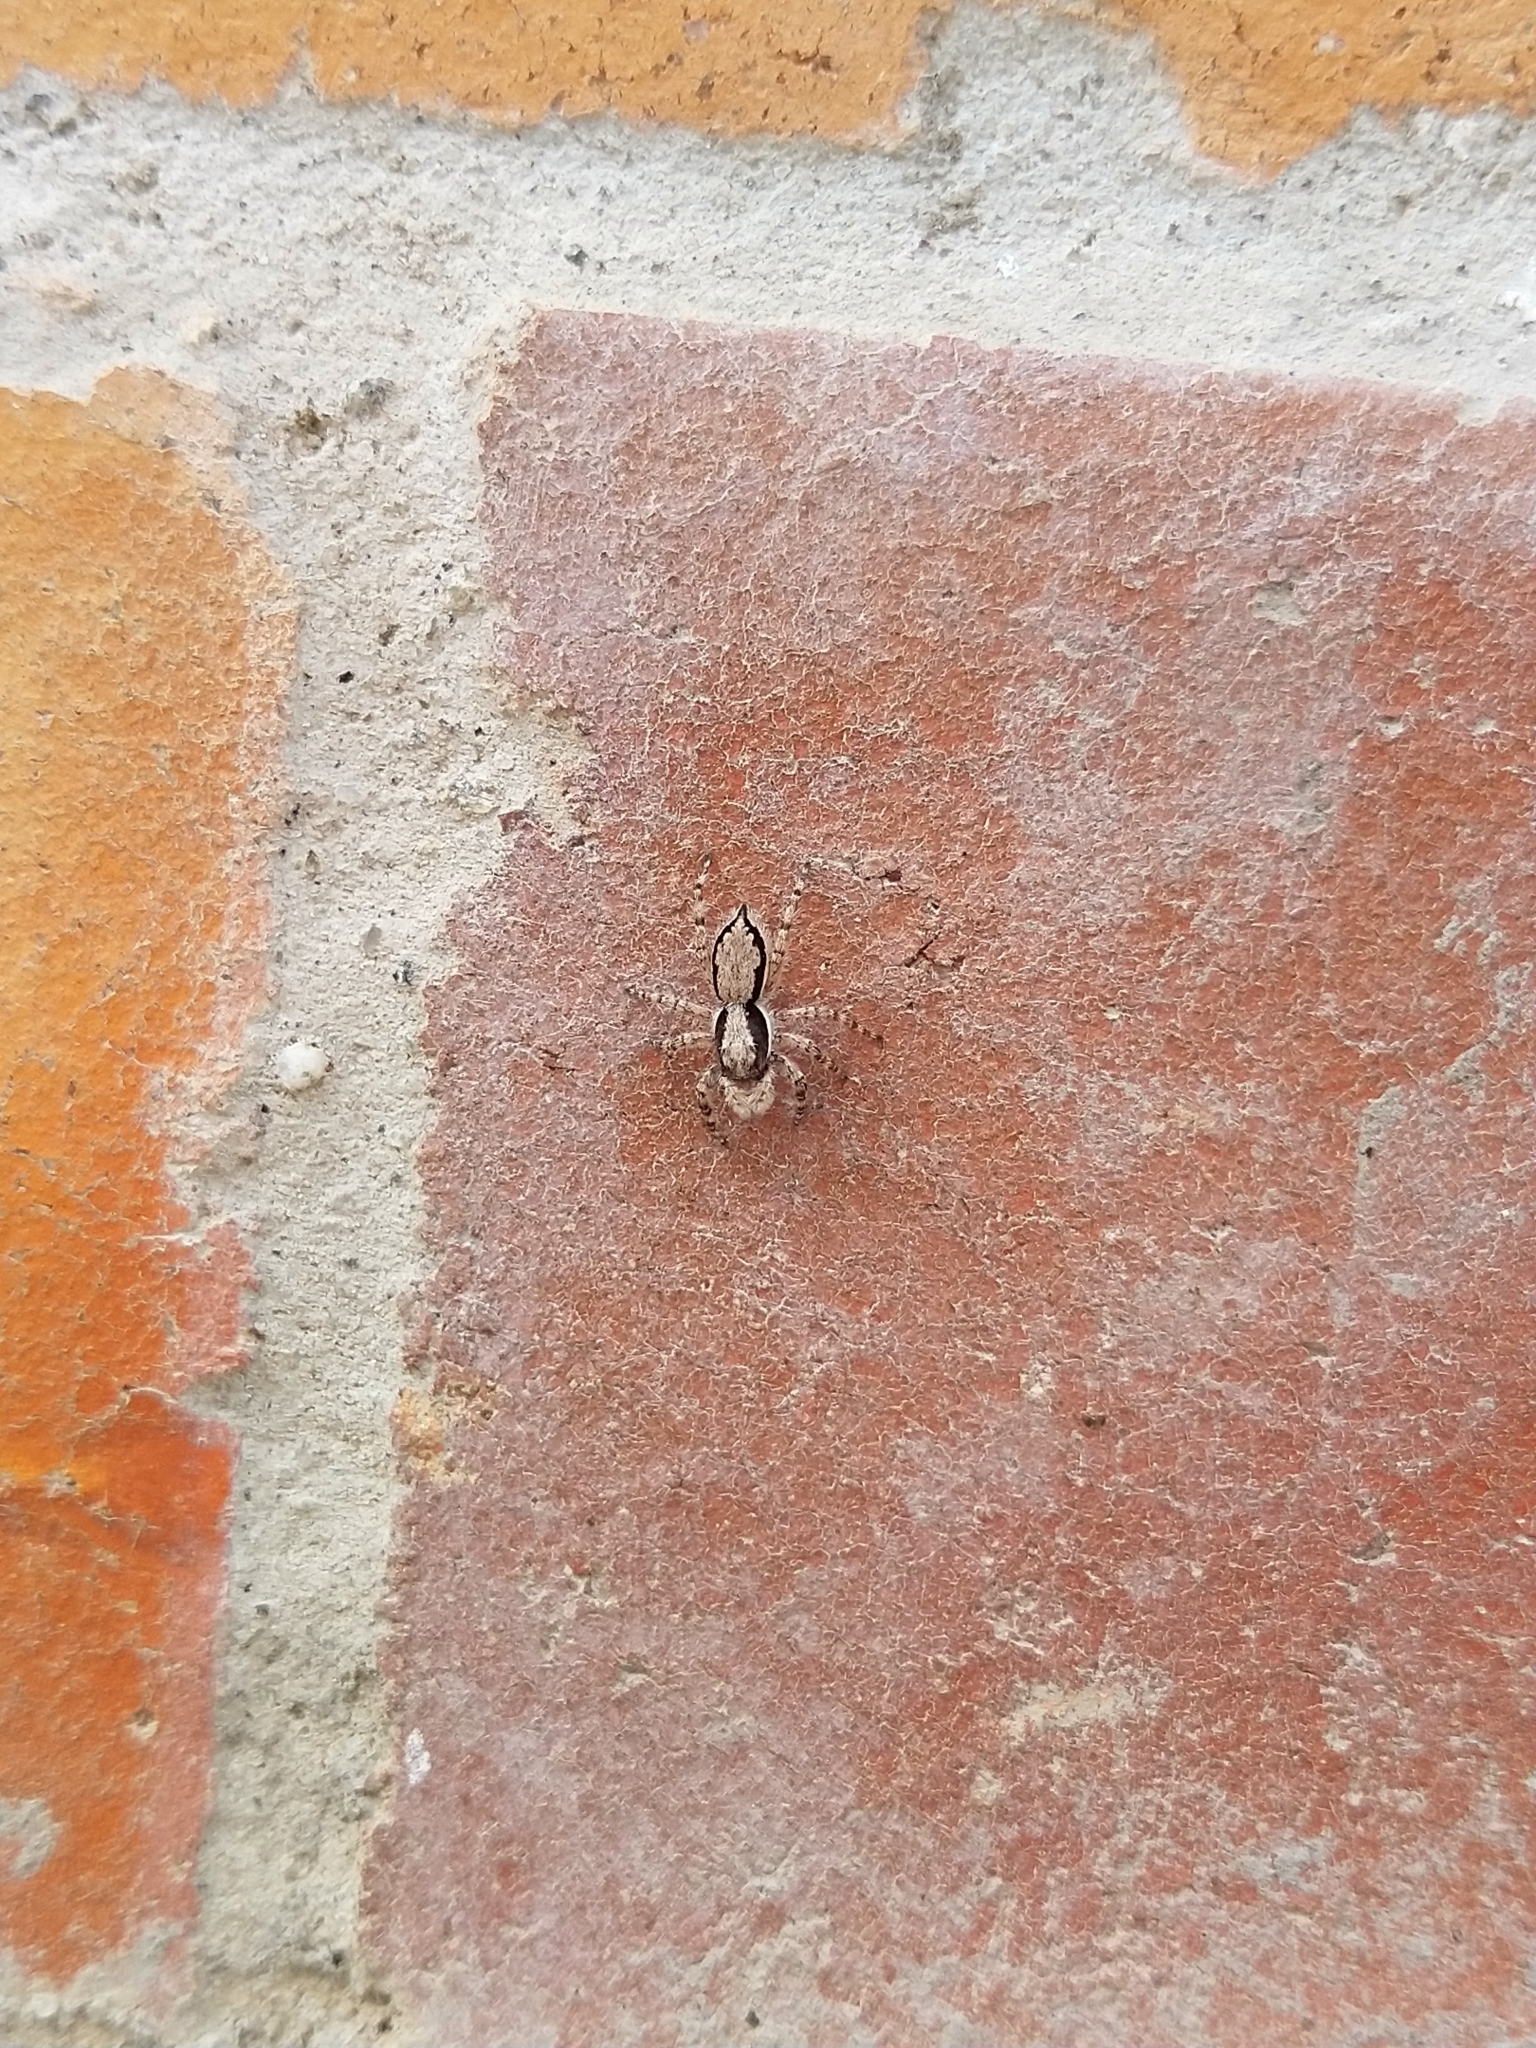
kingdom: Animalia
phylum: Arthropoda
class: Arachnida
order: Araneae
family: Salticidae
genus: Menemerus
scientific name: Menemerus bivittatus
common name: Gray wall jumper
